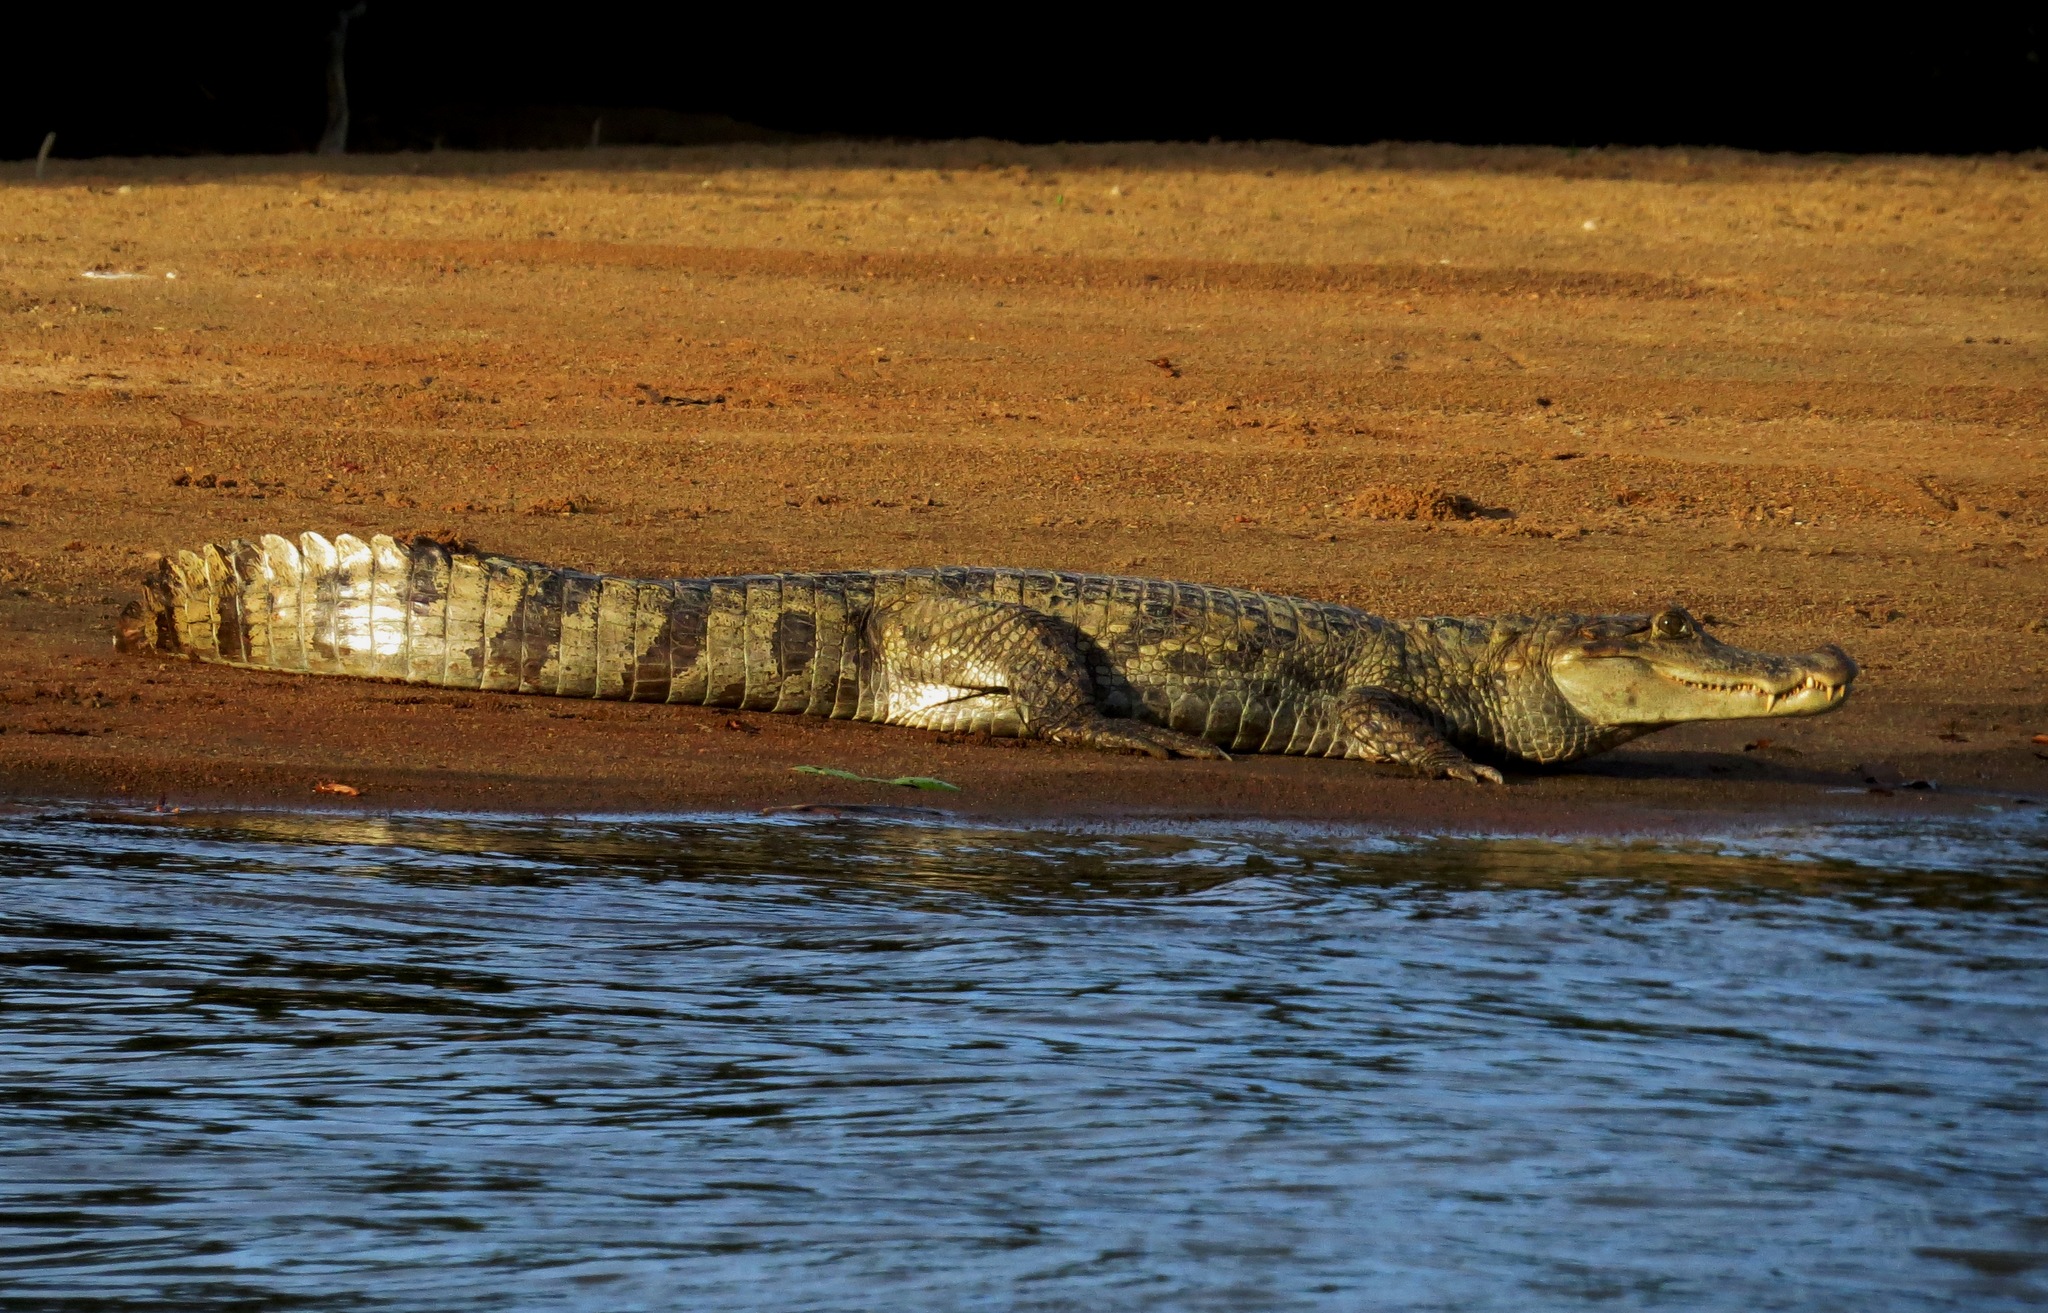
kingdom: Animalia
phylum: Chordata
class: Crocodylia
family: Alligatoridae
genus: Caiman
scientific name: Caiman crocodilus
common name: Common caiman
